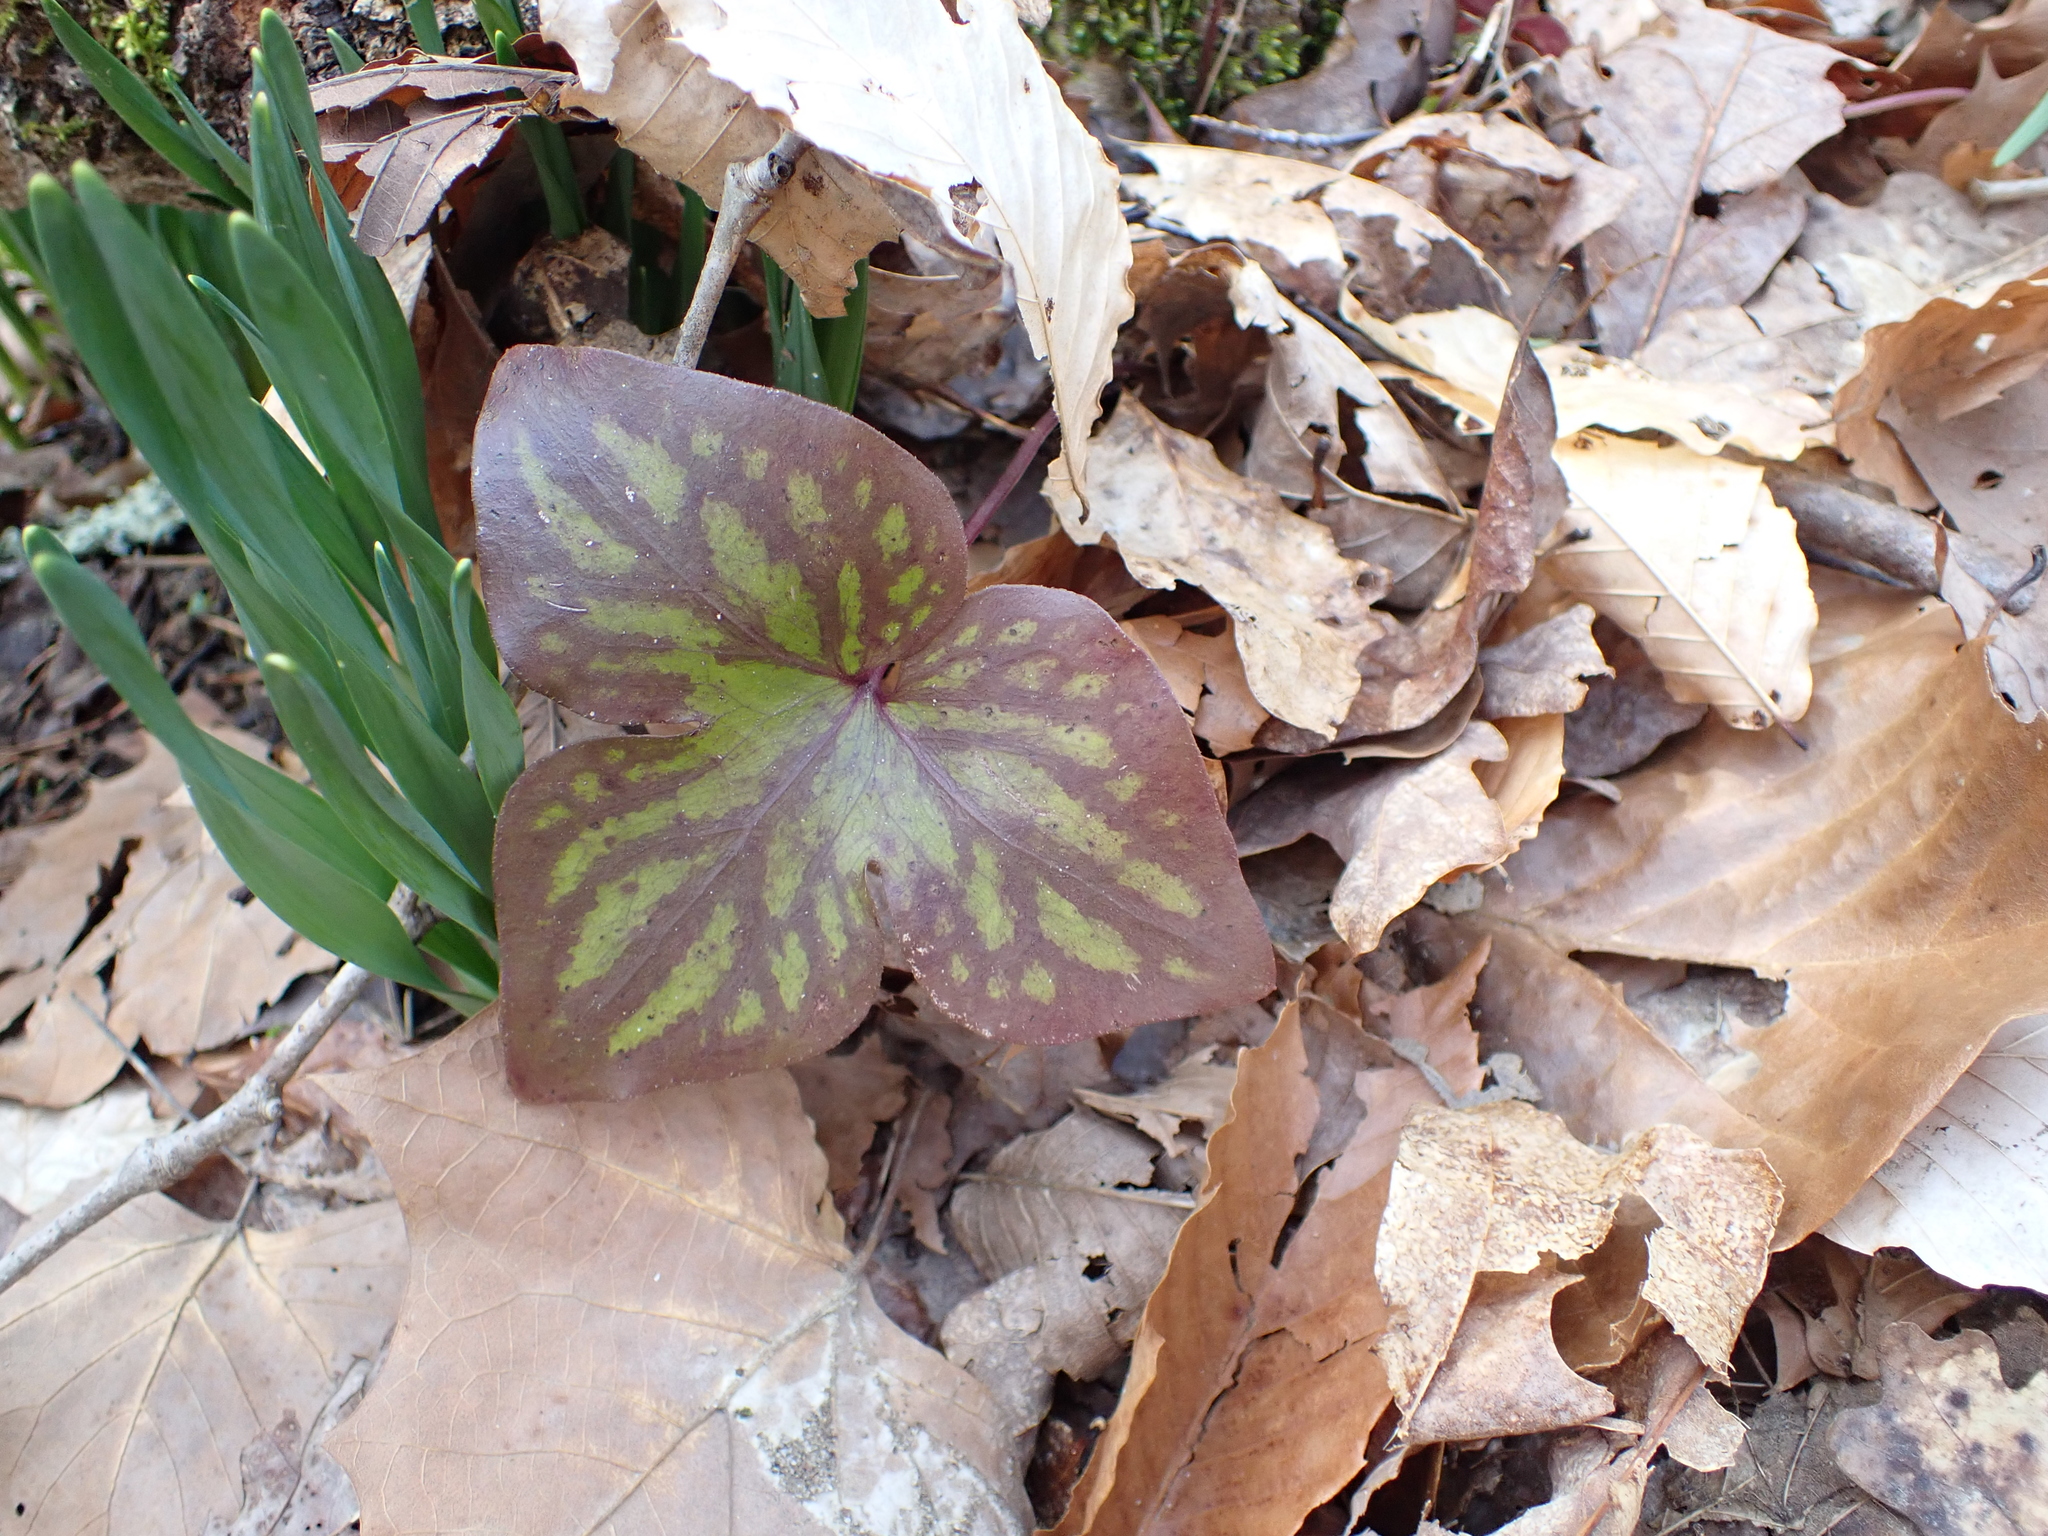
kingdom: Plantae
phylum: Tracheophyta
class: Magnoliopsida
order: Ranunculales
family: Ranunculaceae
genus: Hepatica
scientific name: Hepatica acutiloba
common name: Sharp-lobed hepatica
